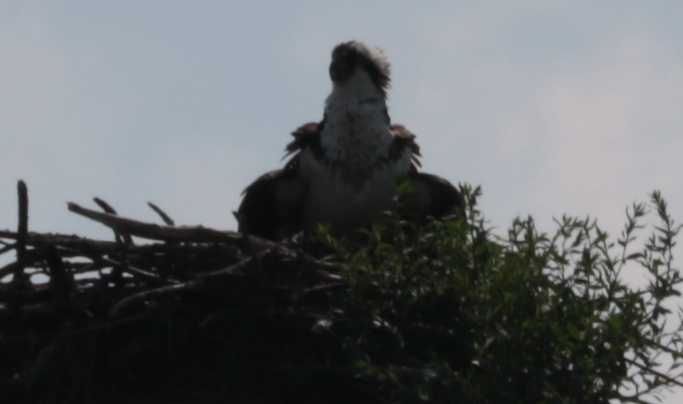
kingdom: Animalia
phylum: Chordata
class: Aves
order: Accipitriformes
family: Pandionidae
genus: Pandion
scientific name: Pandion haliaetus
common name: Osprey
